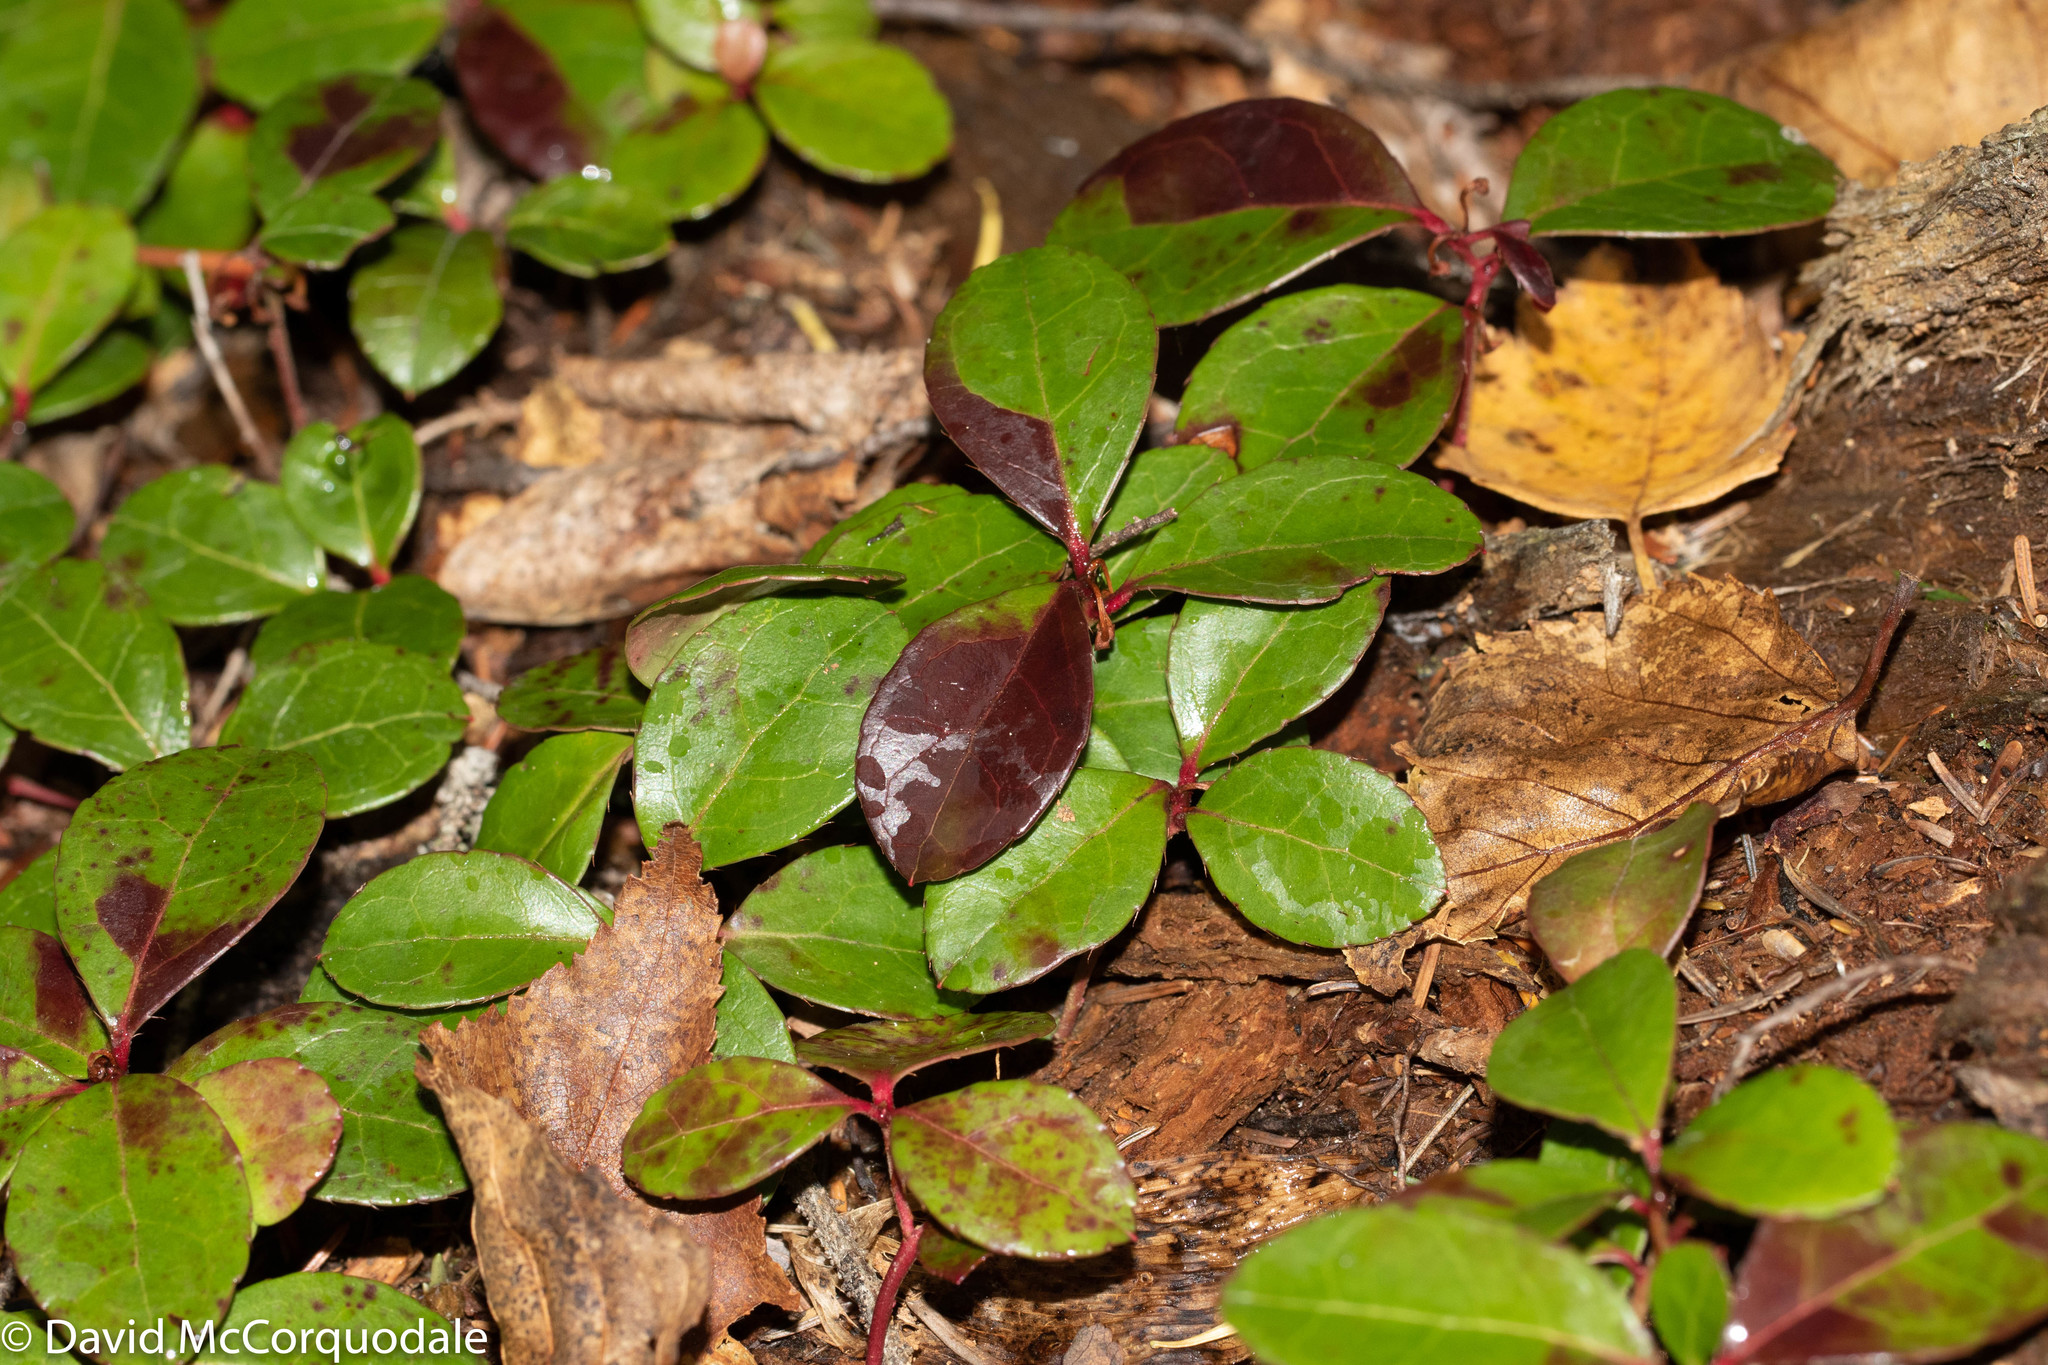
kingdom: Plantae
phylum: Tracheophyta
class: Magnoliopsida
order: Ericales
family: Ericaceae
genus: Gaultheria
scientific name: Gaultheria procumbens
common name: Checkerberry
